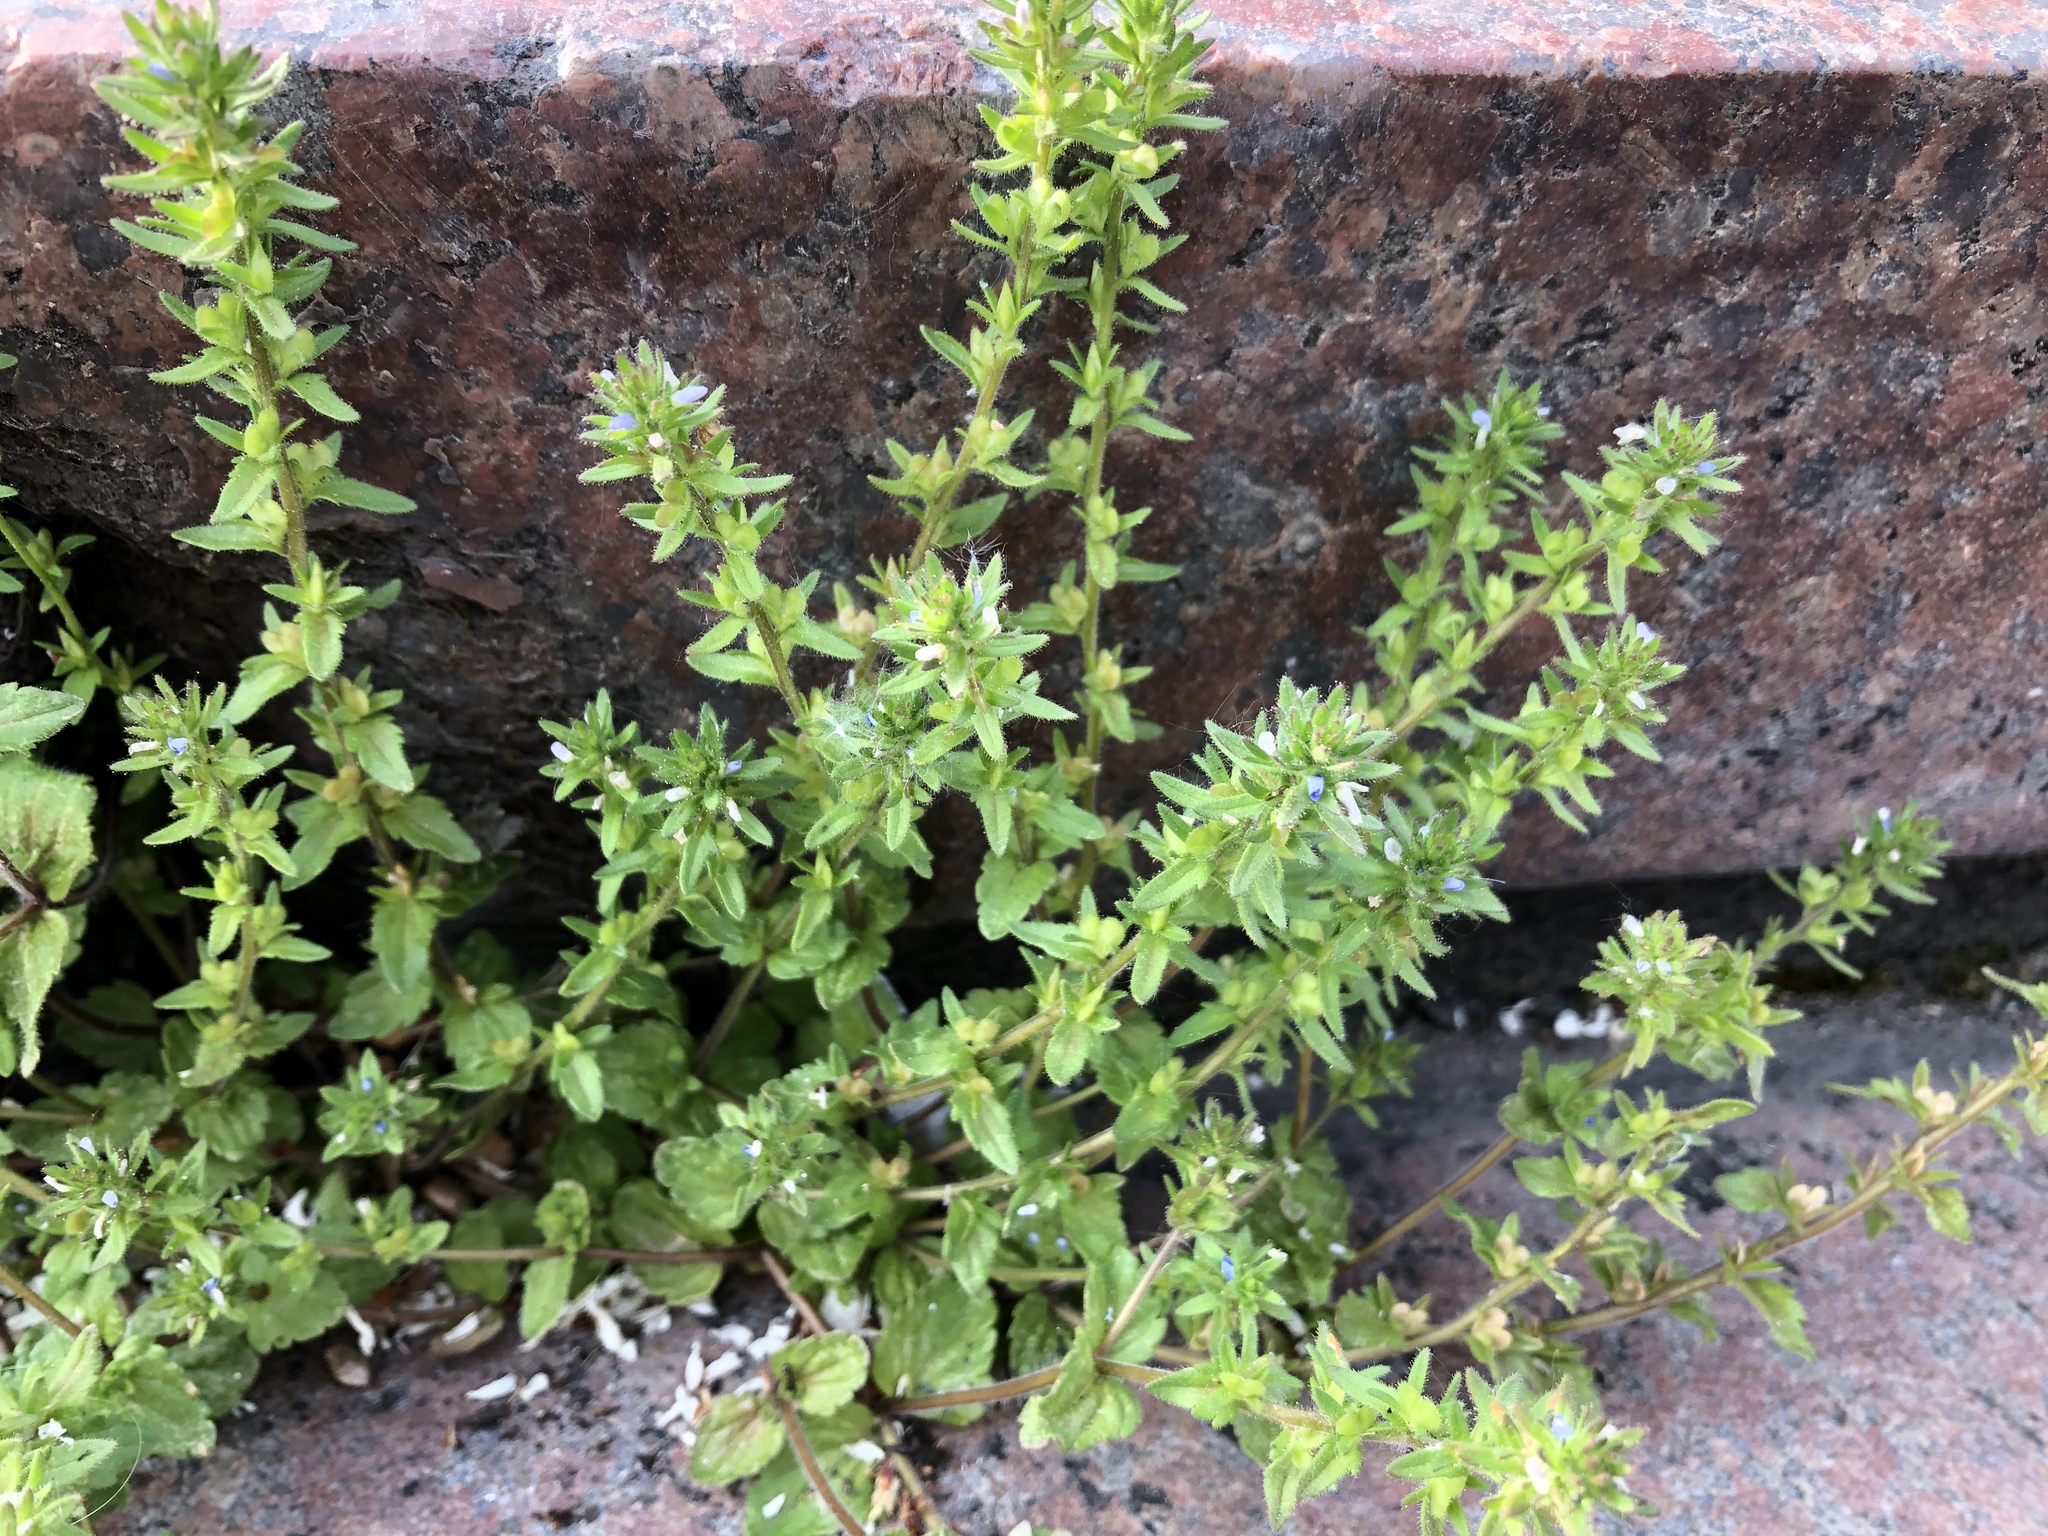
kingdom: Plantae
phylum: Tracheophyta
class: Magnoliopsida
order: Lamiales
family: Plantaginaceae
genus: Veronica
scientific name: Veronica arvensis
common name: Corn speedwell
